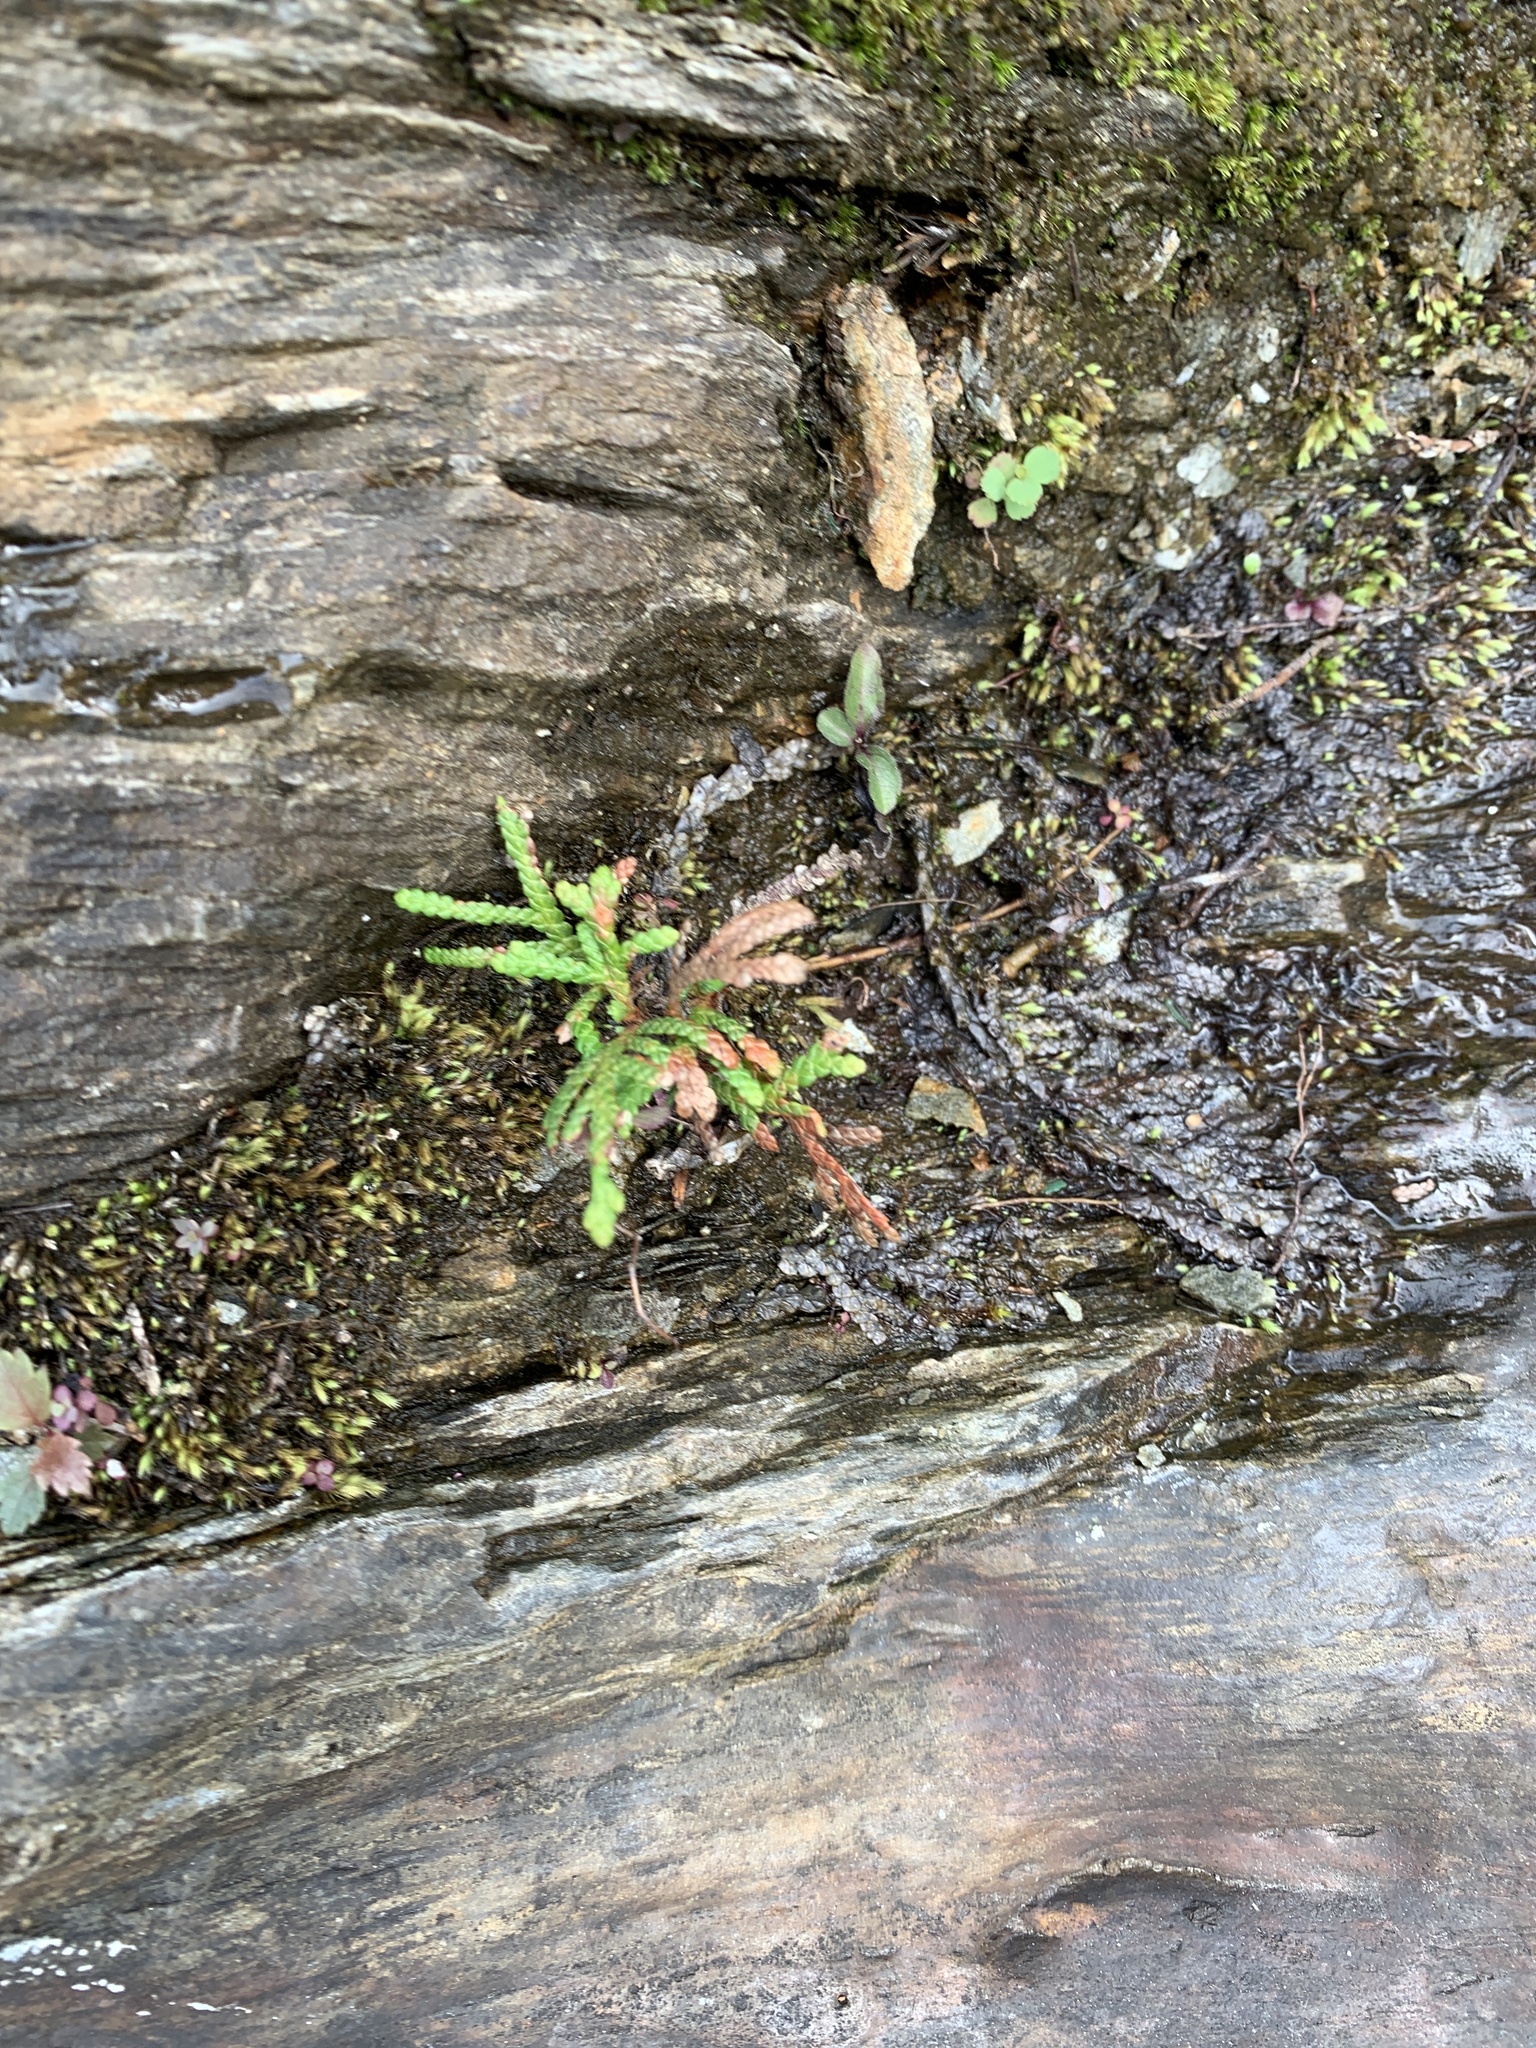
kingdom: Plantae
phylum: Tracheophyta
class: Pinopsida
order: Pinales
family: Cupressaceae
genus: Thuja
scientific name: Thuja occidentalis
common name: Northern white-cedar
